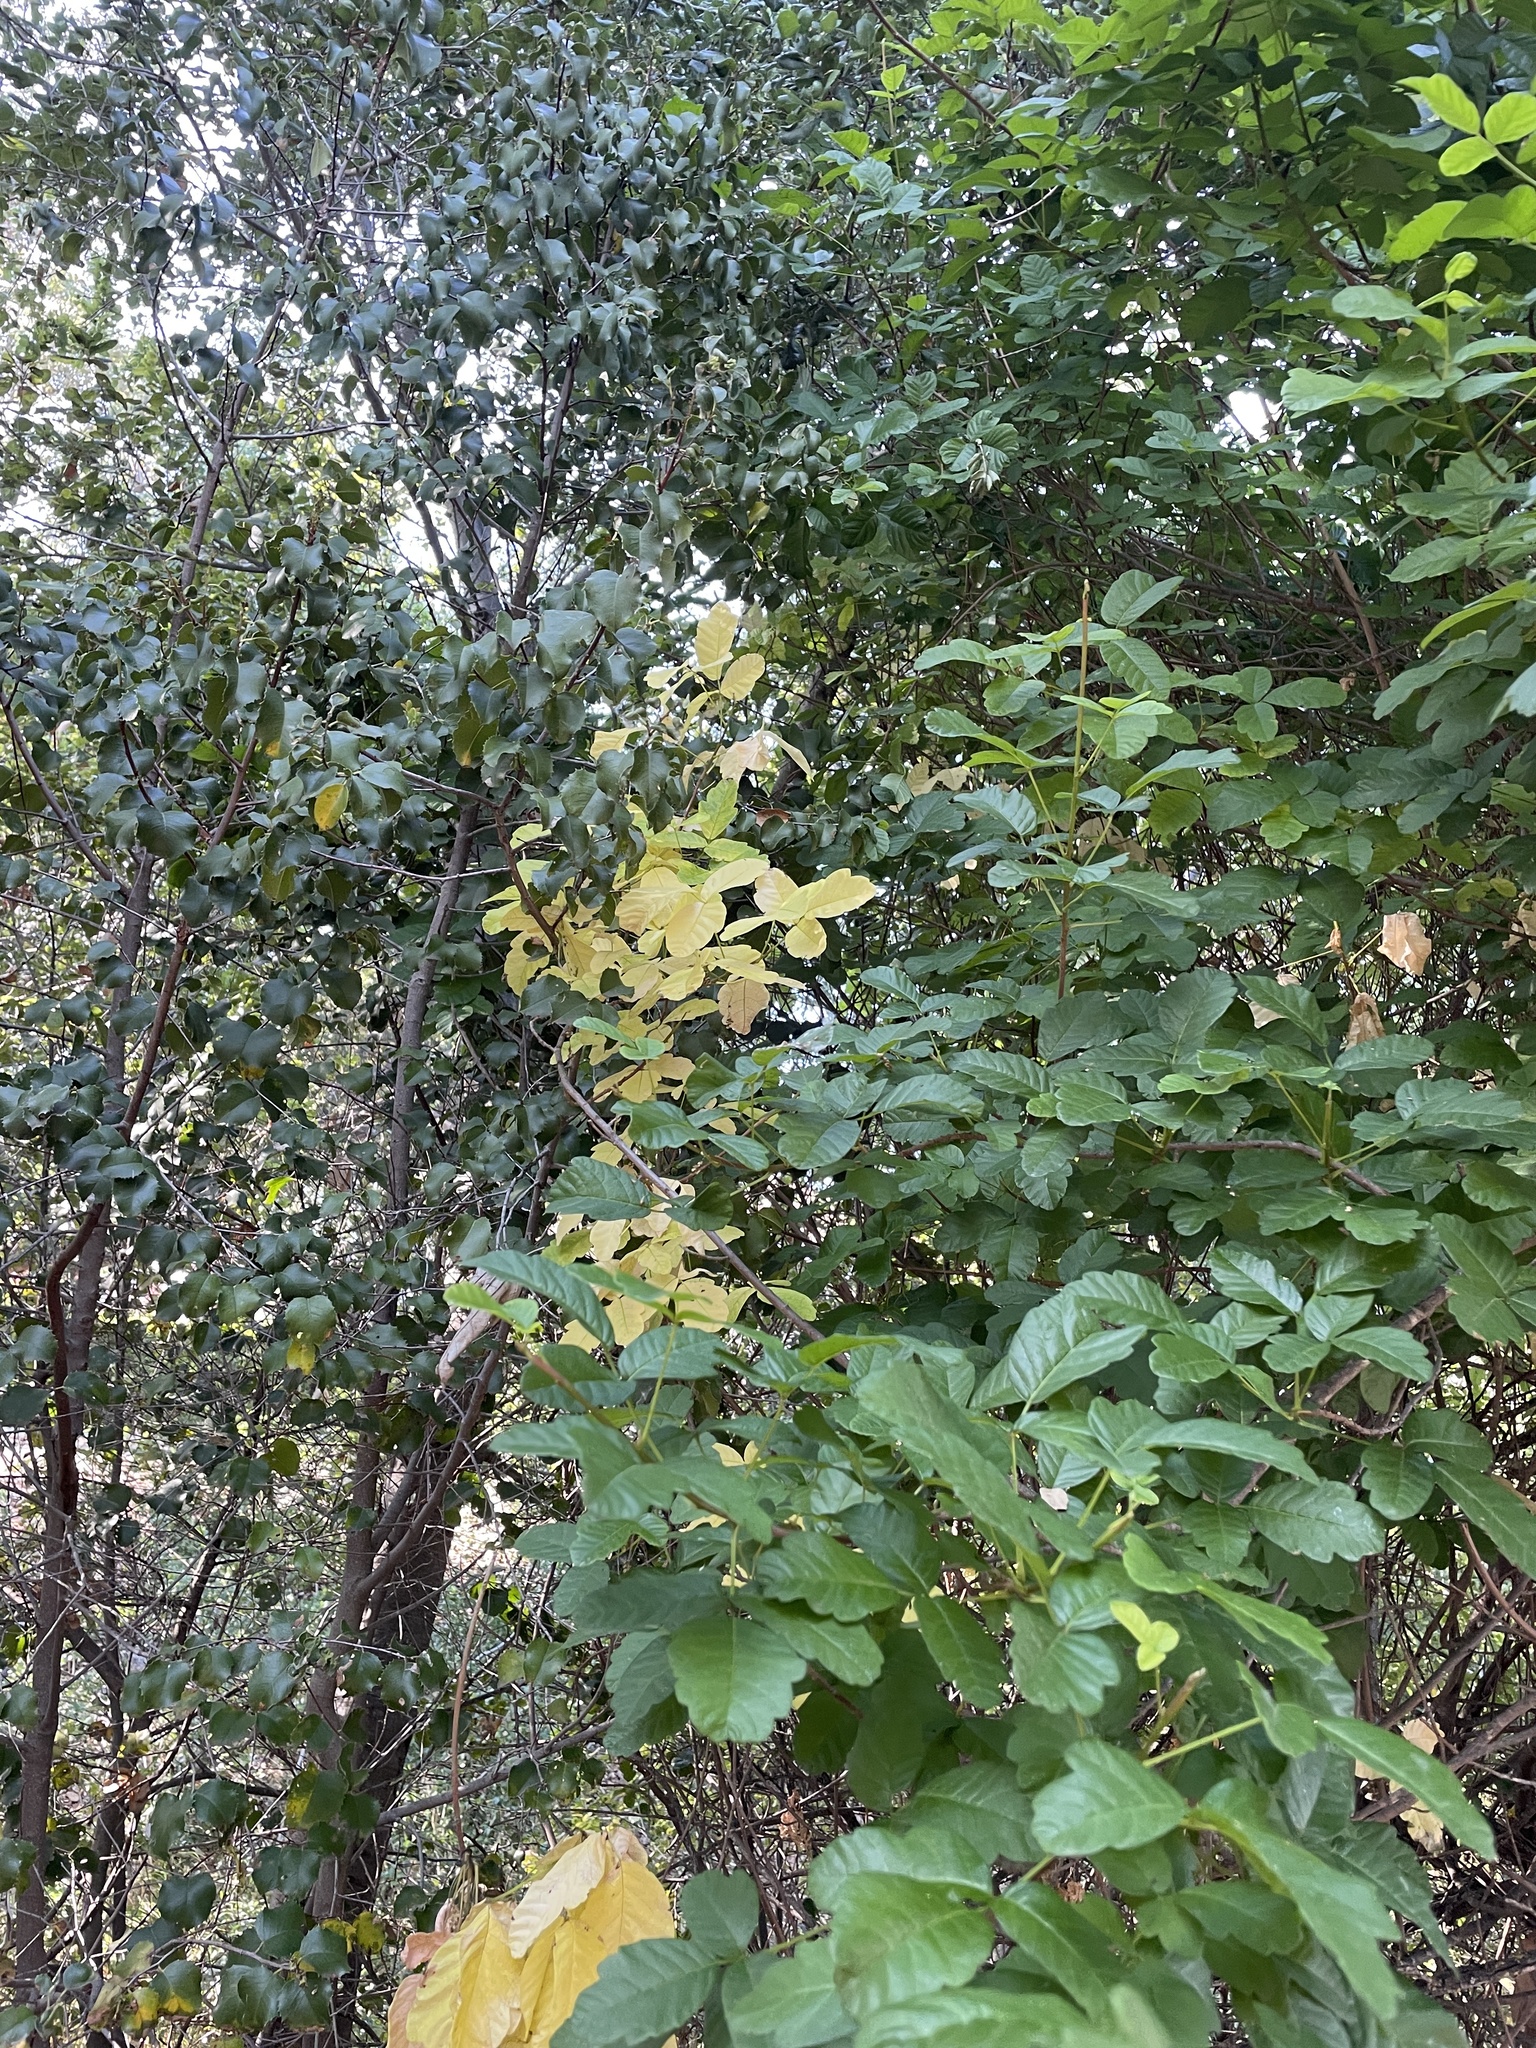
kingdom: Plantae
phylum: Tracheophyta
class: Magnoliopsida
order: Sapindales
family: Anacardiaceae
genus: Toxicodendron
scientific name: Toxicodendron diversilobum
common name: Pacific poison-oak
